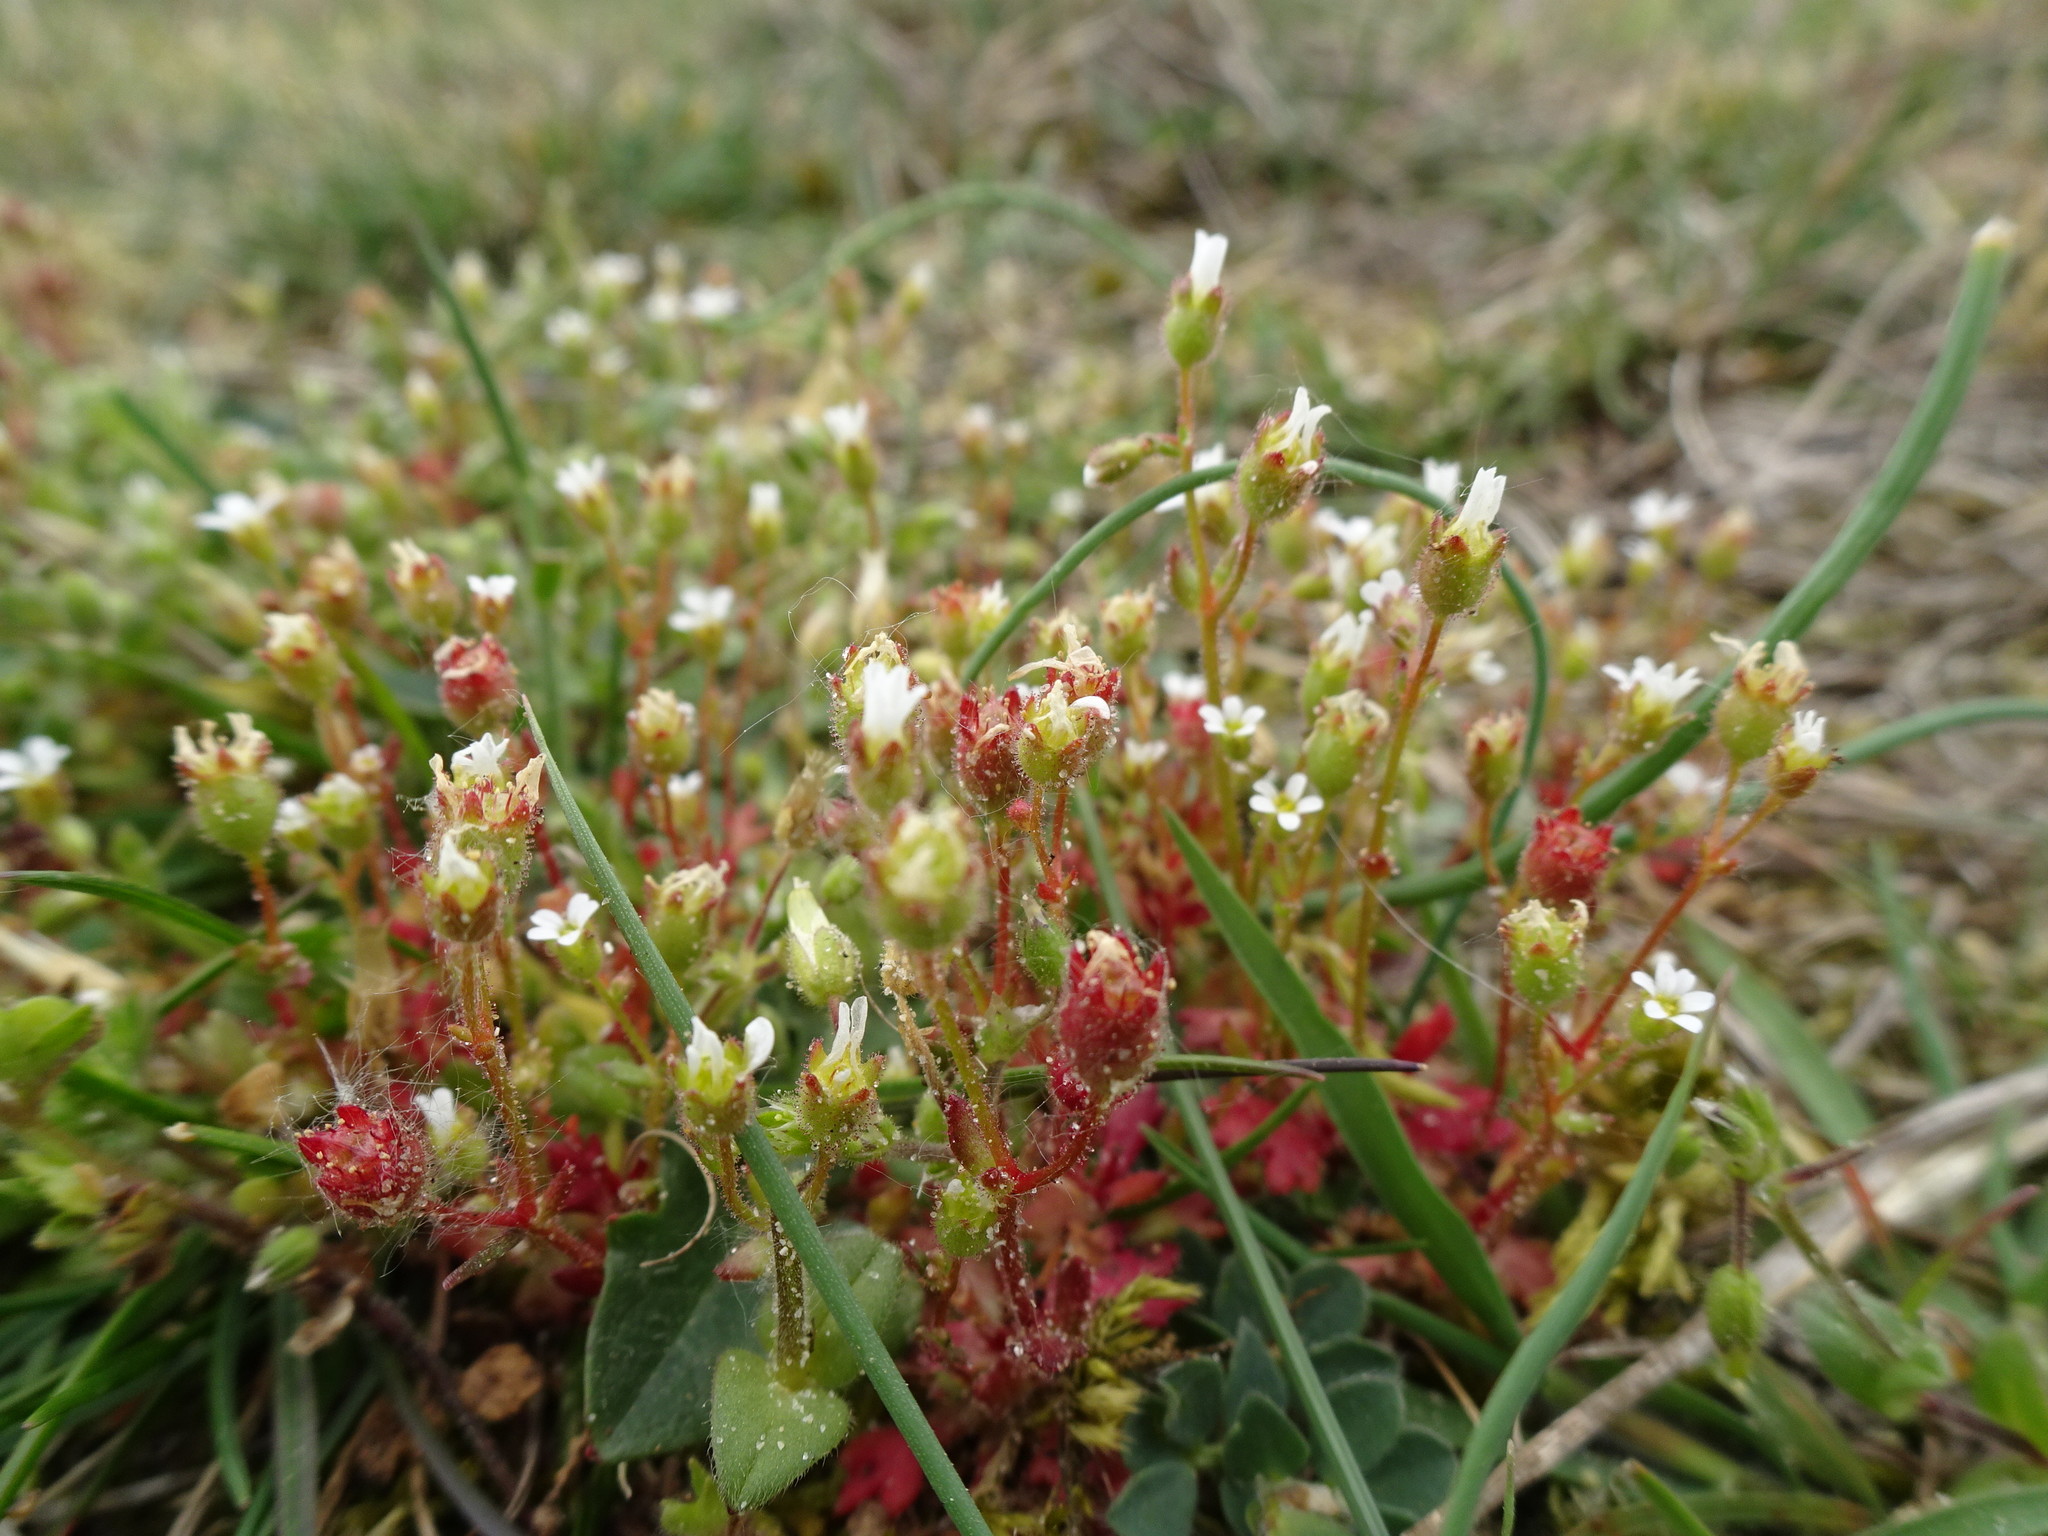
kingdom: Plantae
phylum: Tracheophyta
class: Magnoliopsida
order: Saxifragales
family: Saxifragaceae
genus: Saxifraga
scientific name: Saxifraga tridactylites
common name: Rue-leaved saxifrage
